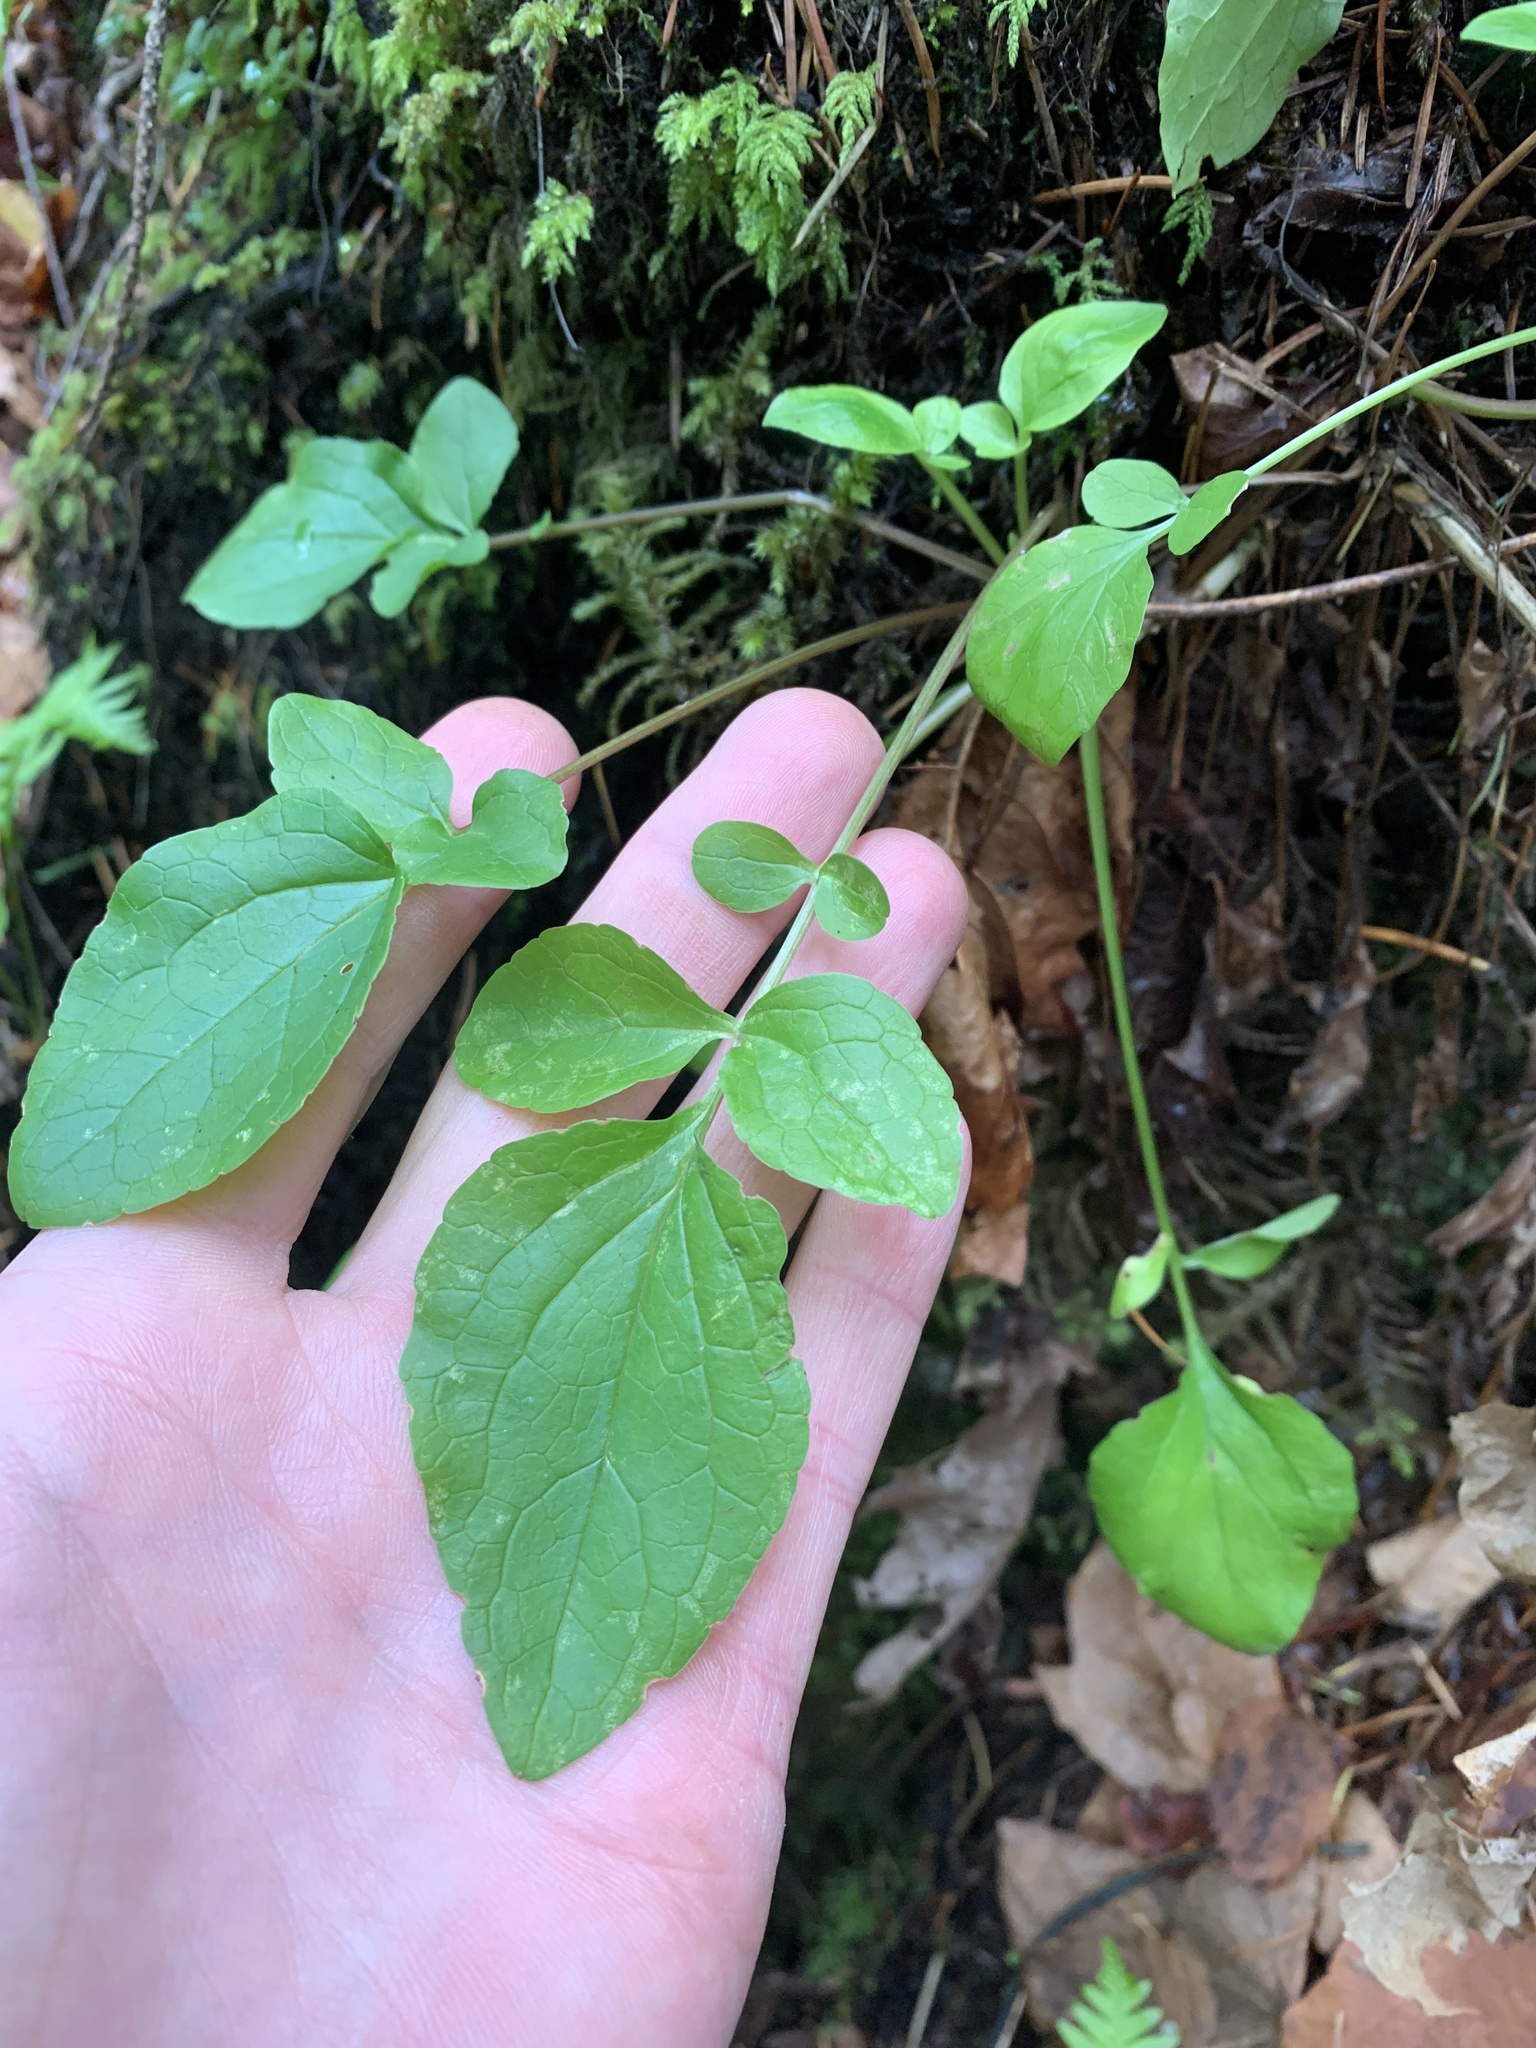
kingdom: Plantae
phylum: Tracheophyta
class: Magnoliopsida
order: Dipsacales
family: Caprifoliaceae
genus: Valeriana
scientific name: Valeriana scouleri
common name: Scouler's valerian
